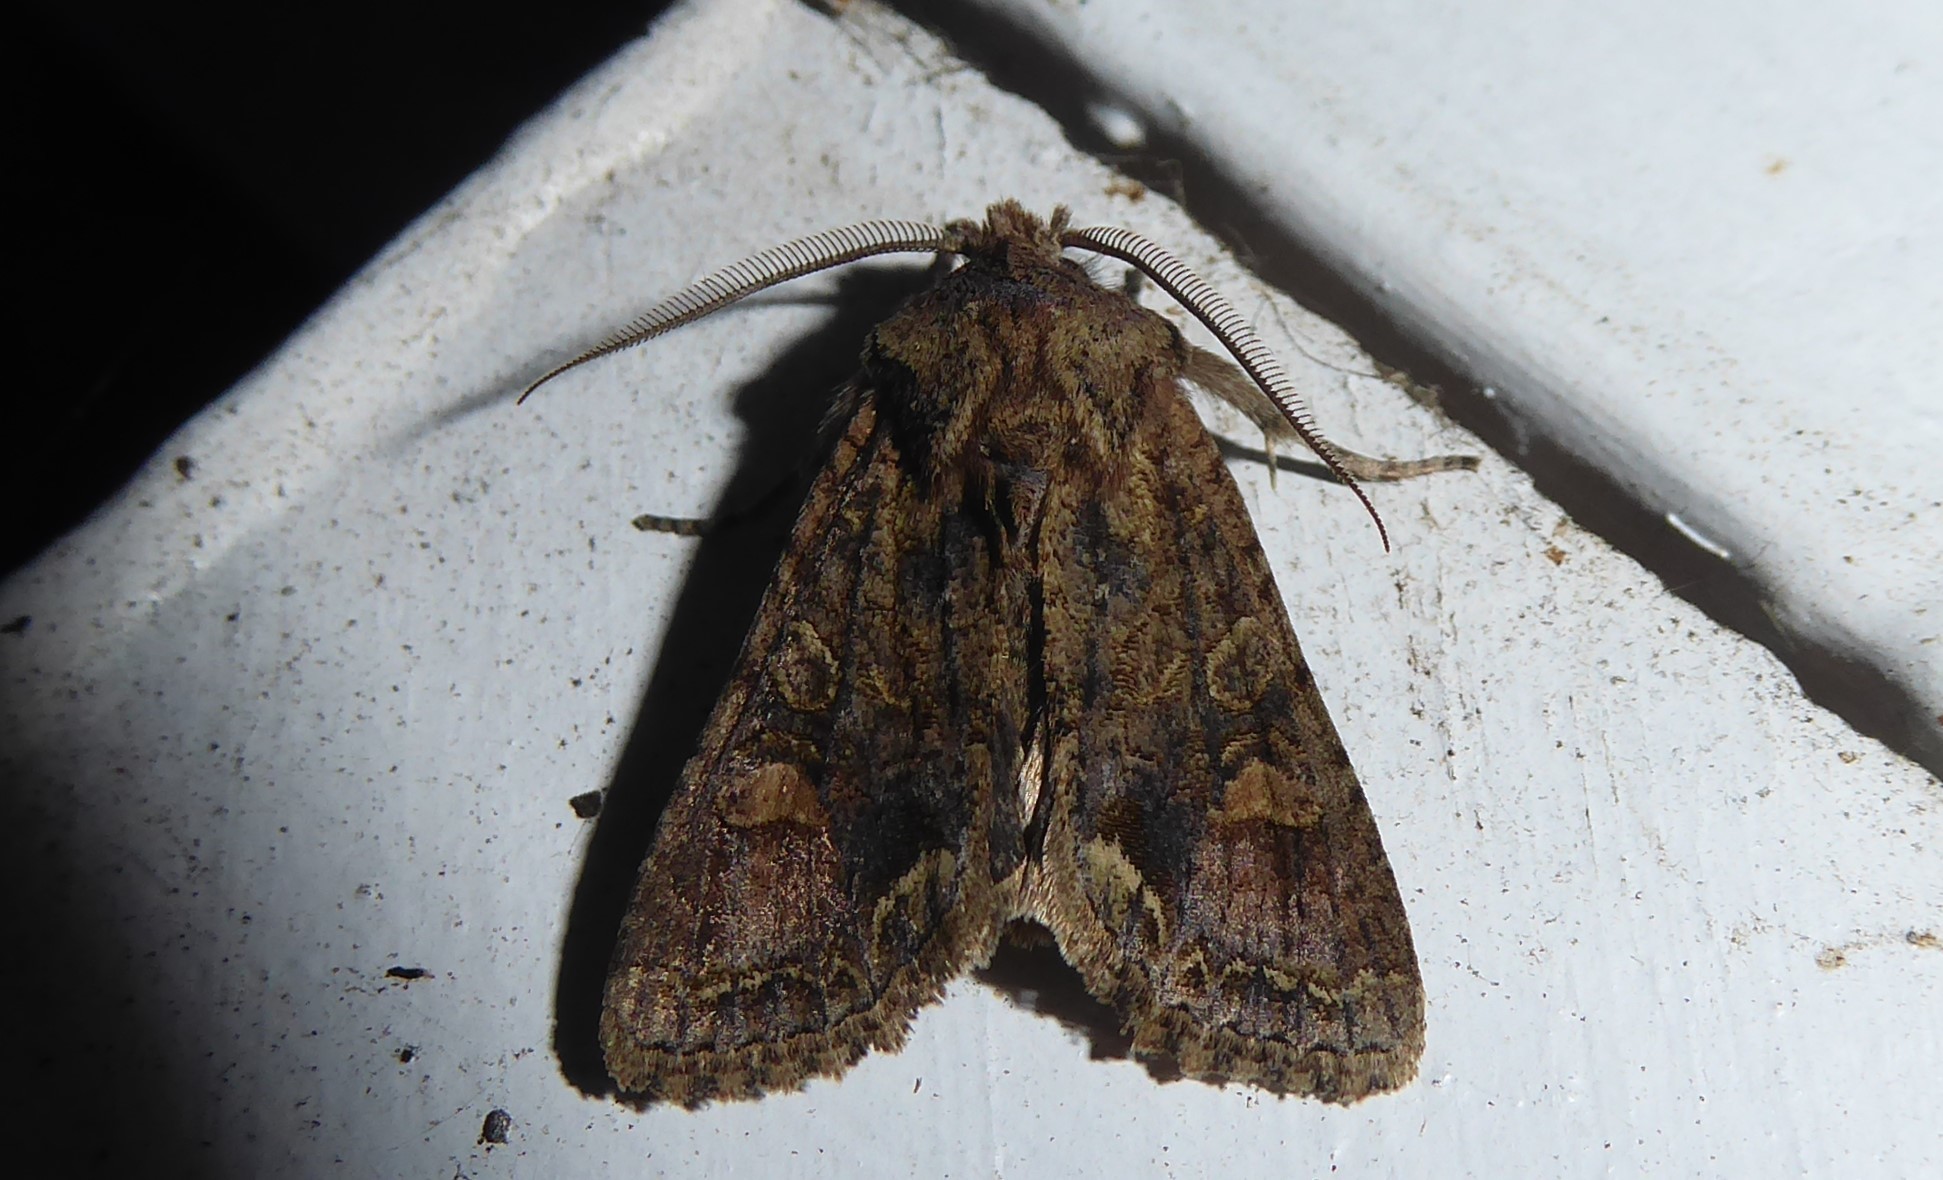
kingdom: Animalia
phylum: Arthropoda
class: Insecta
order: Lepidoptera
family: Noctuidae
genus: Ichneutica
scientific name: Ichneutica skelloni
